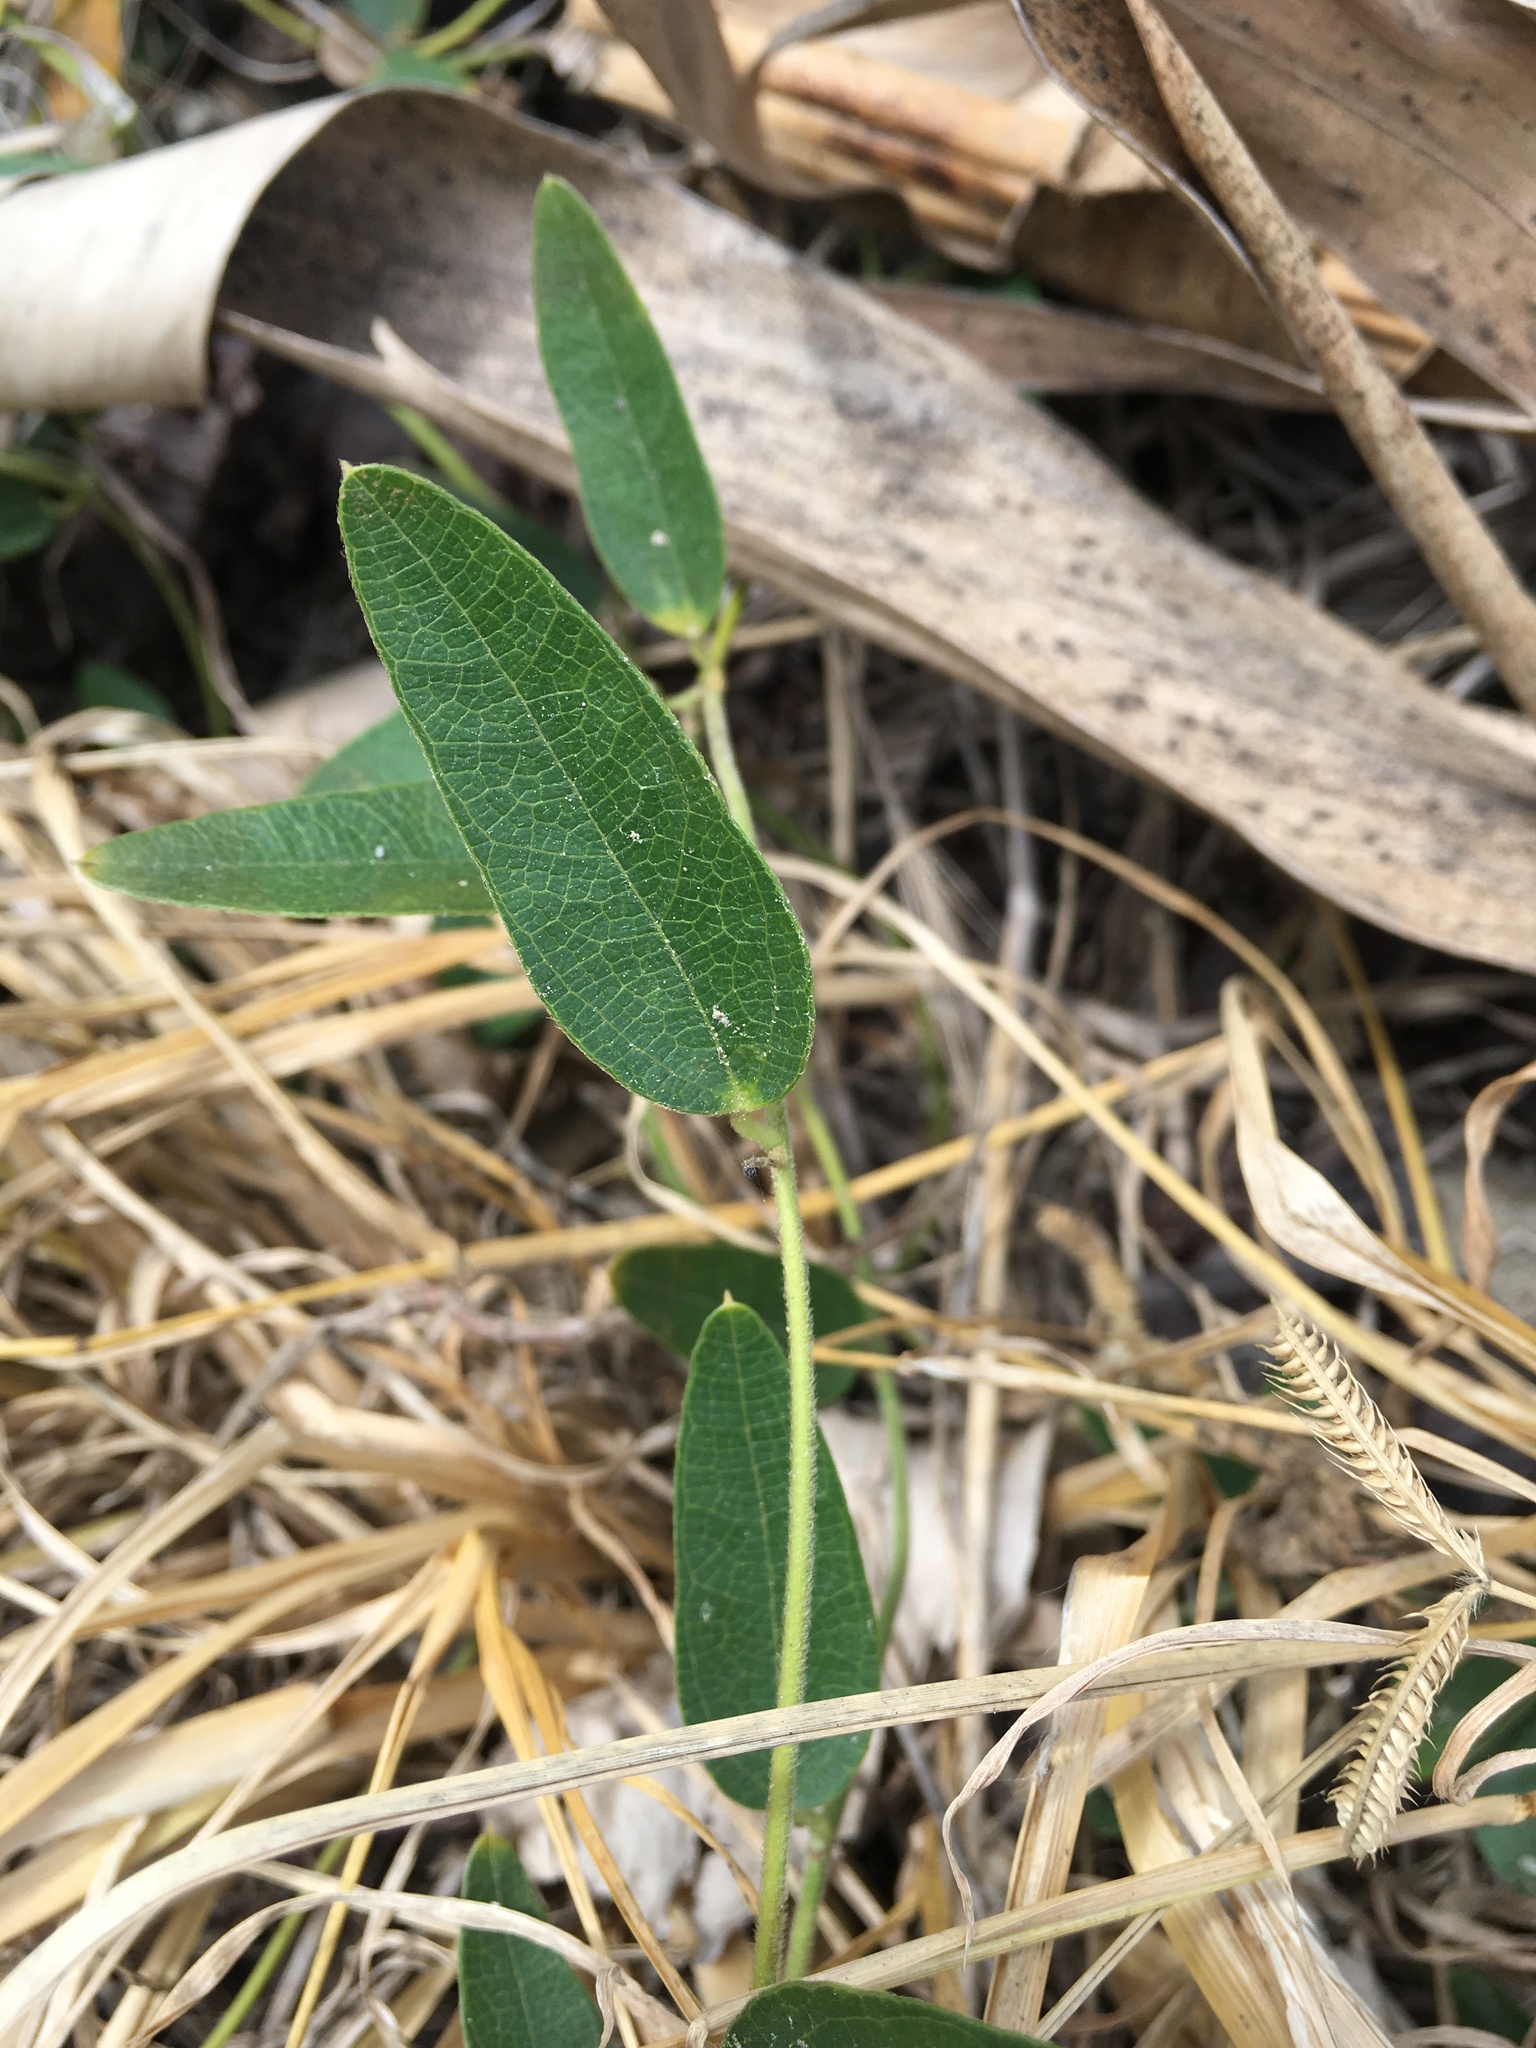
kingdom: Plantae
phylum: Tracheophyta
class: Magnoliopsida
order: Ranunculales
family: Menispermaceae
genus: Cocculus
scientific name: Cocculus orbiculatus
